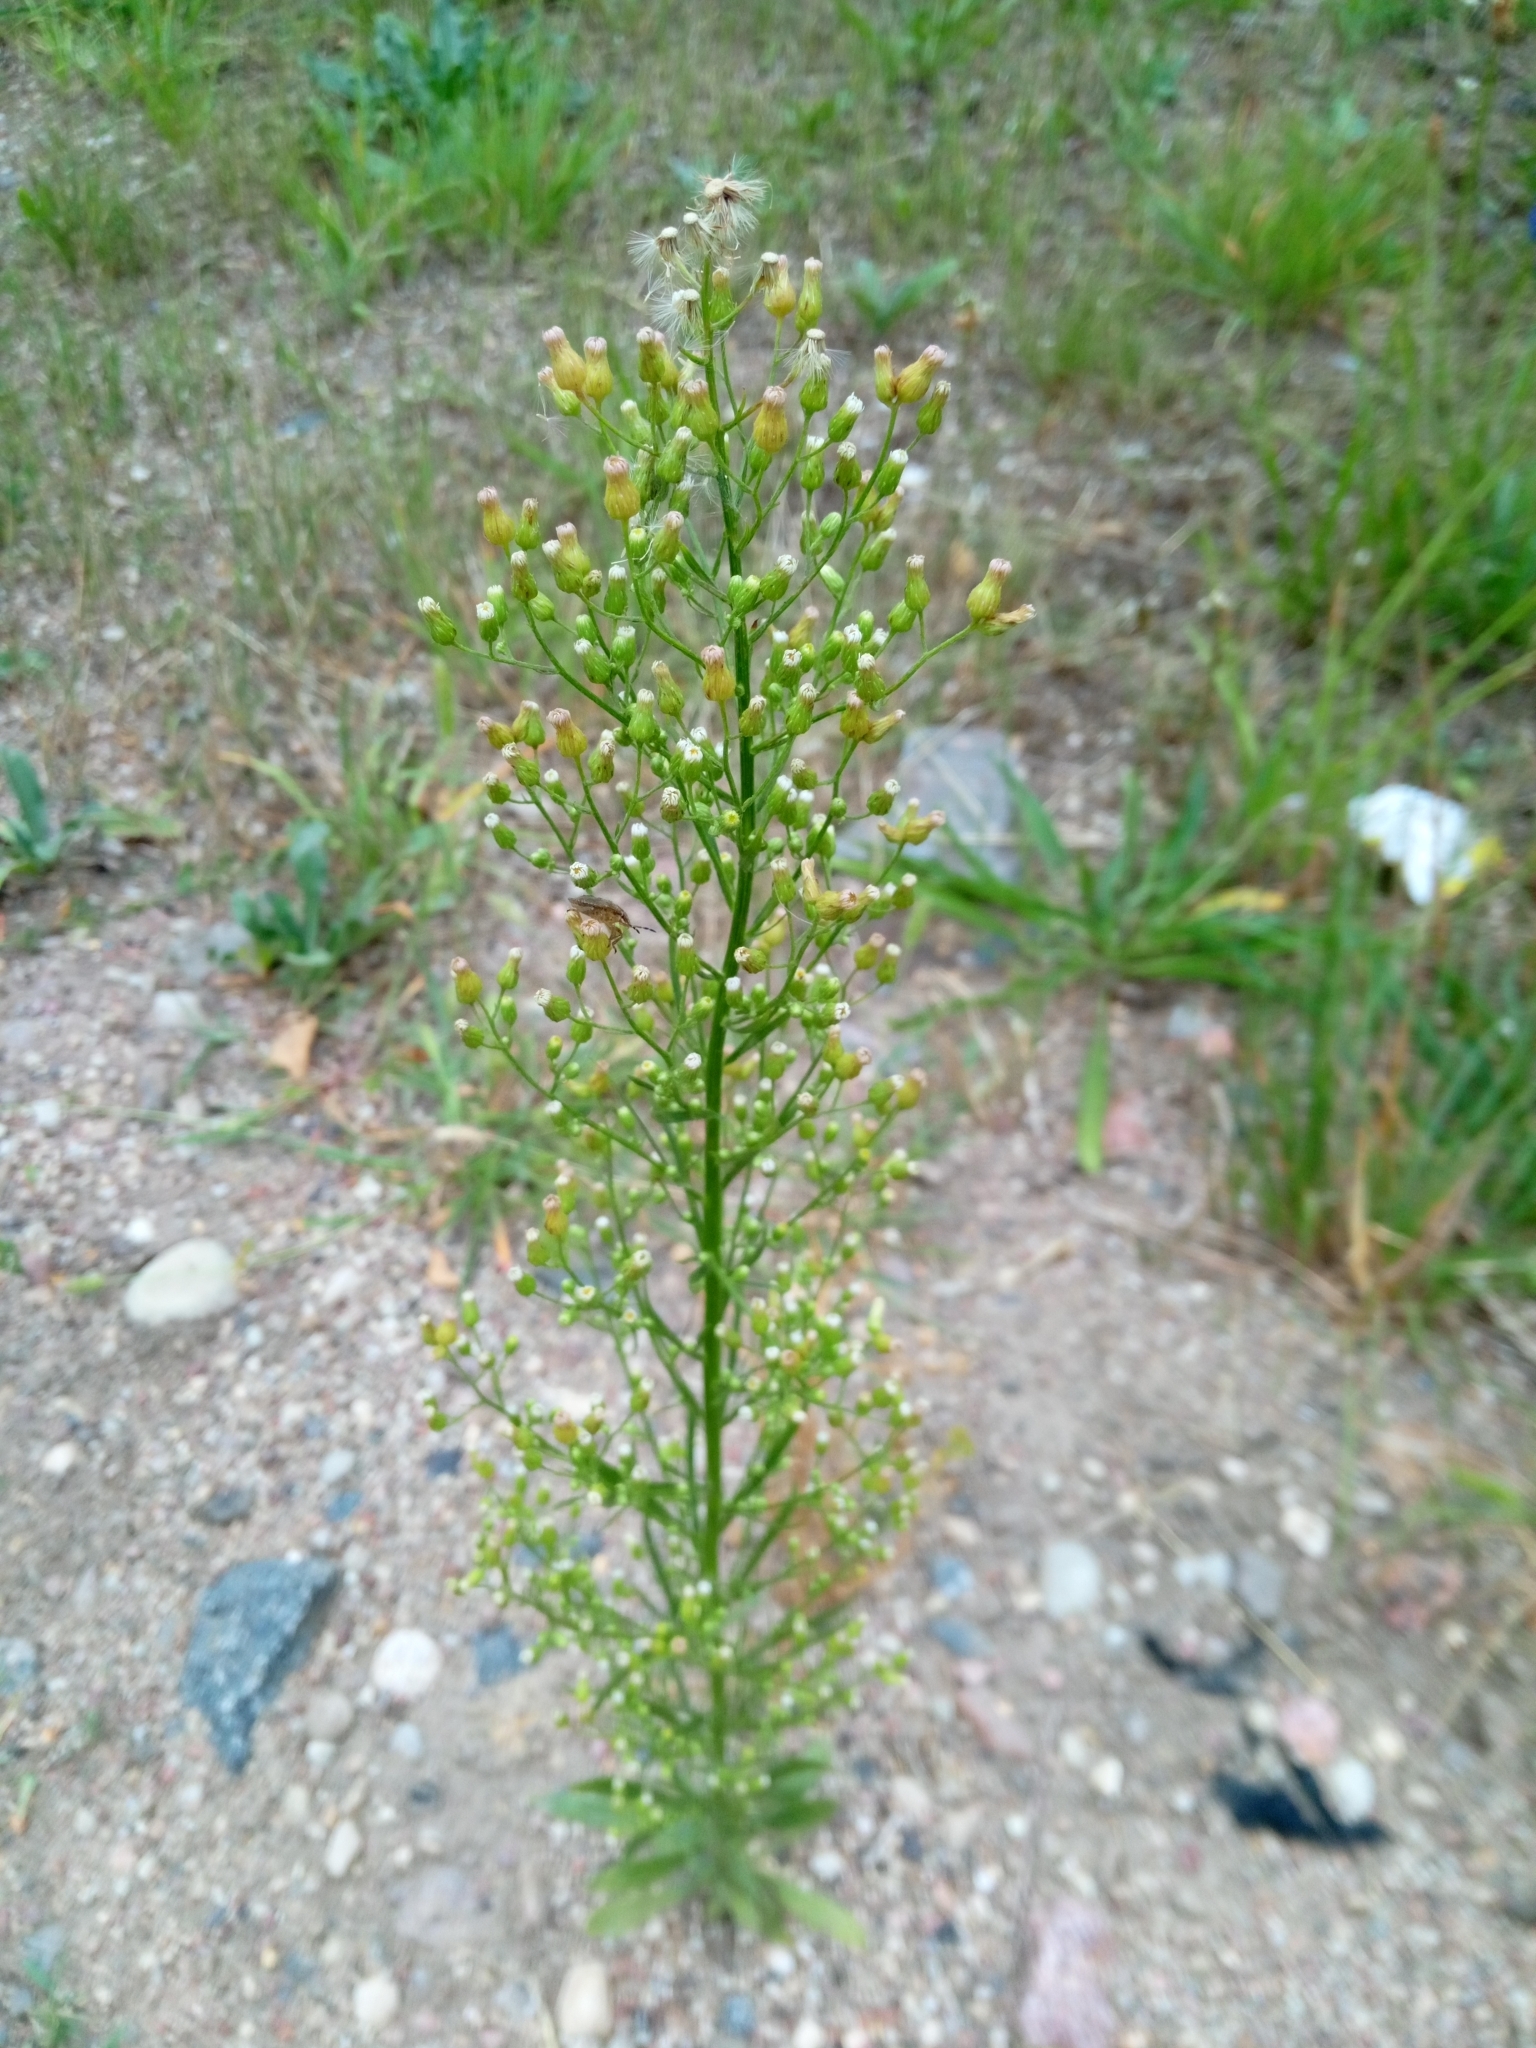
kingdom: Plantae
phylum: Tracheophyta
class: Magnoliopsida
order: Asterales
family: Asteraceae
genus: Erigeron
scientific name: Erigeron canadensis
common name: Canadian fleabane
